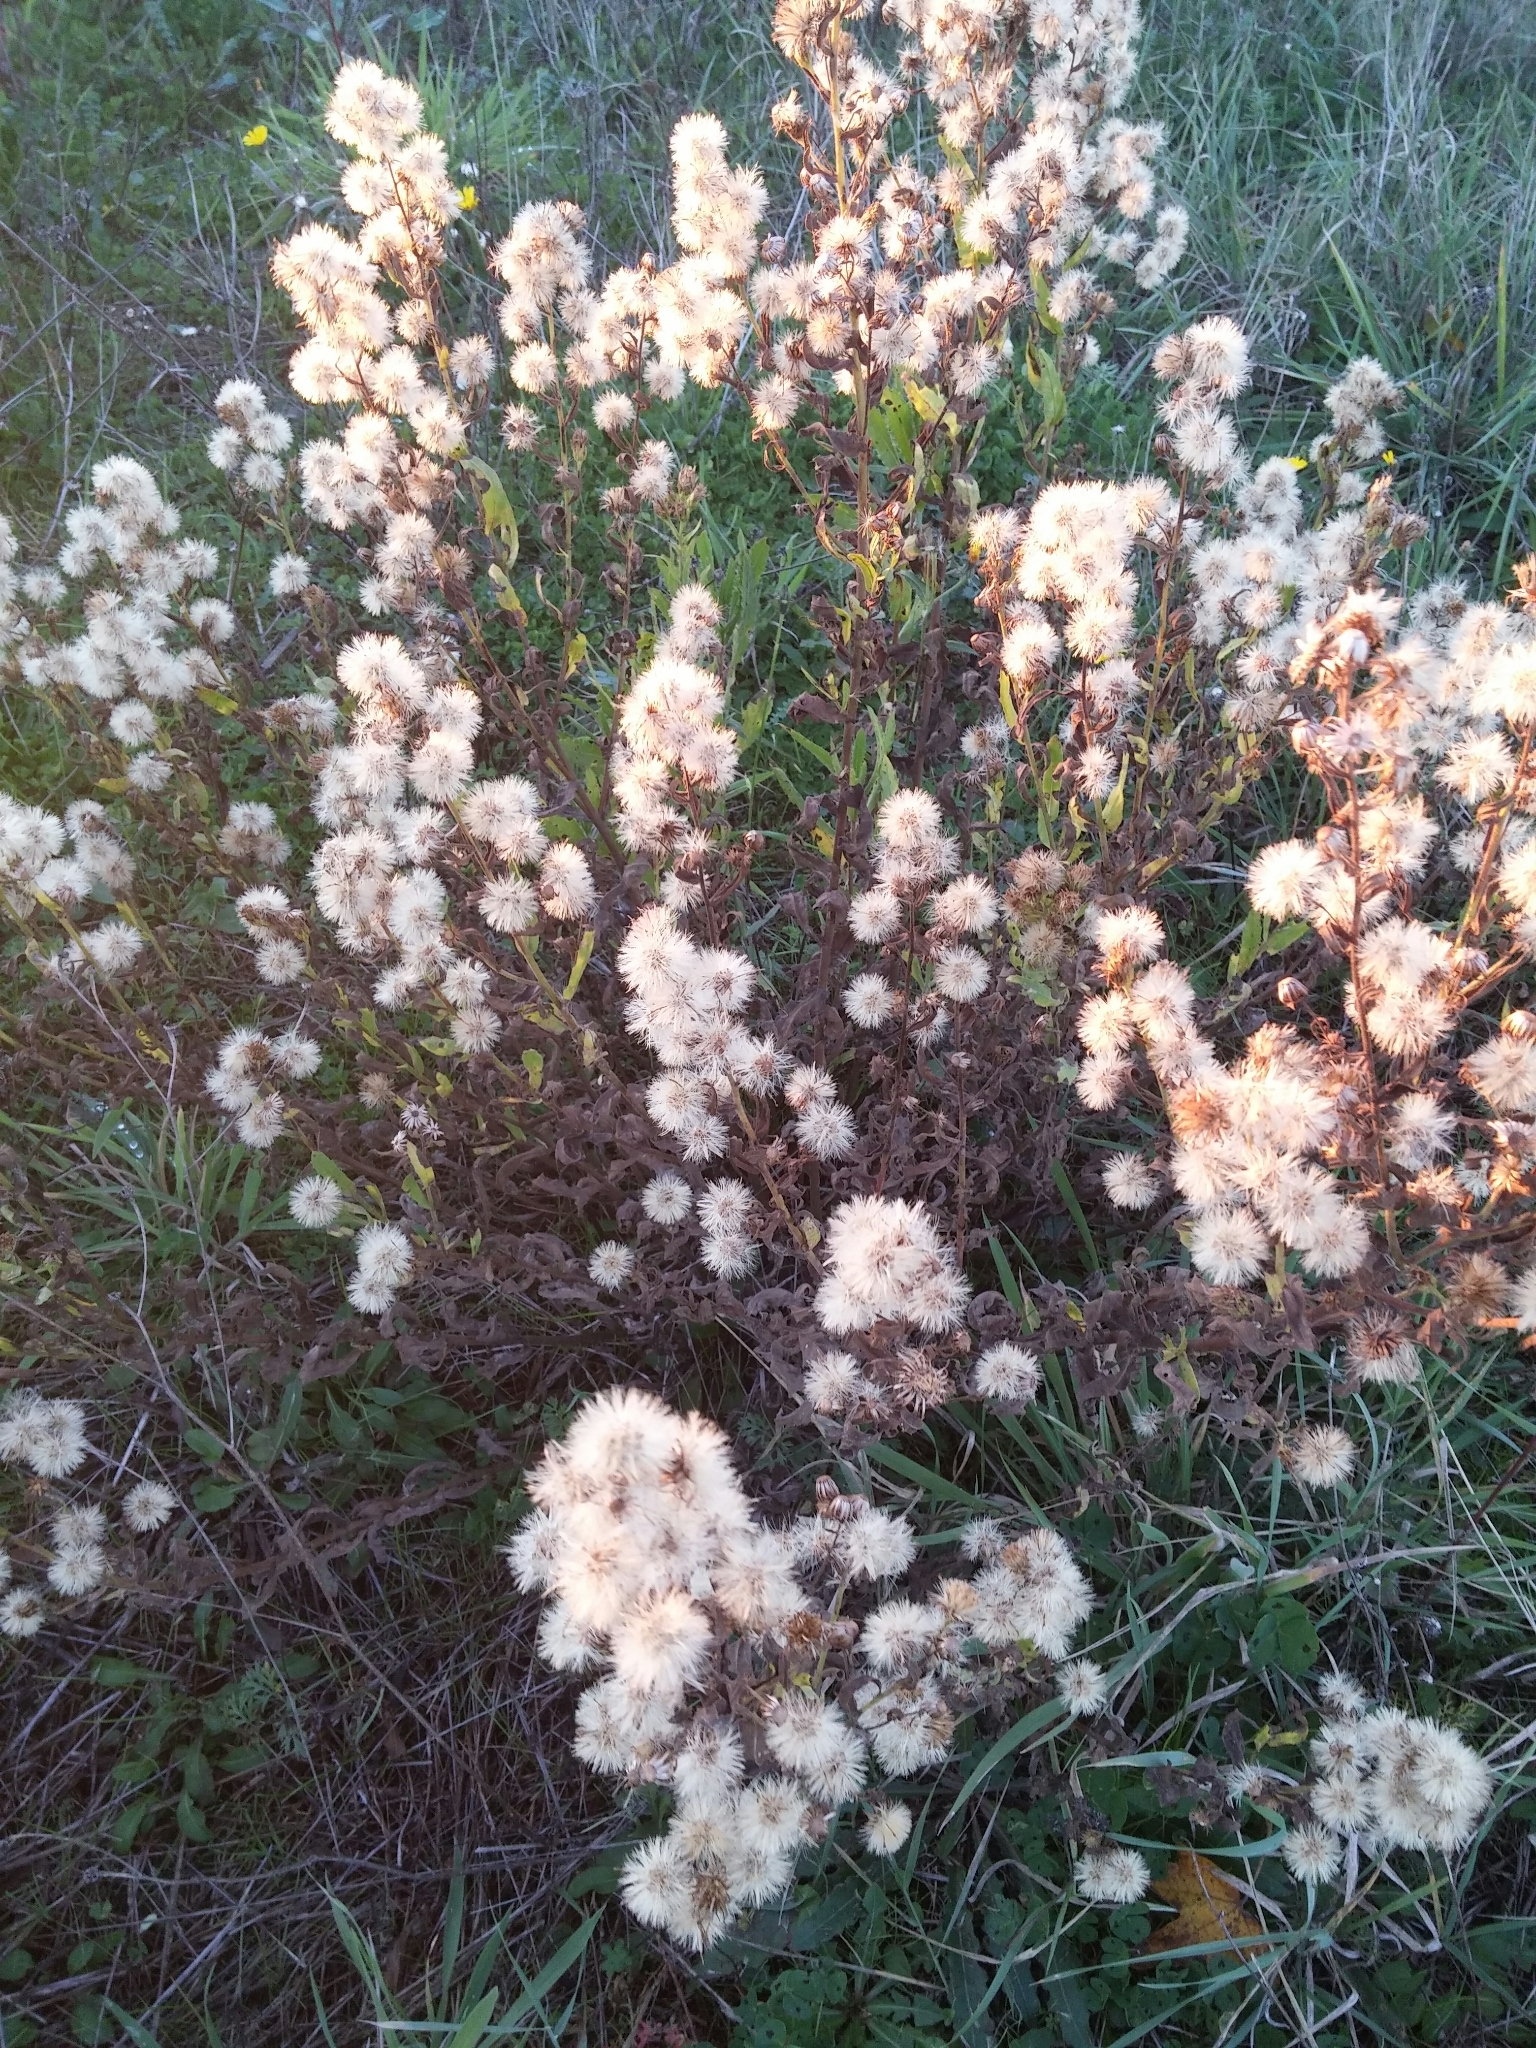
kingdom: Plantae
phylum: Tracheophyta
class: Magnoliopsida
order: Asterales
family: Asteraceae
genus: Dittrichia
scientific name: Dittrichia viscosa
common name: Woody fleabane
